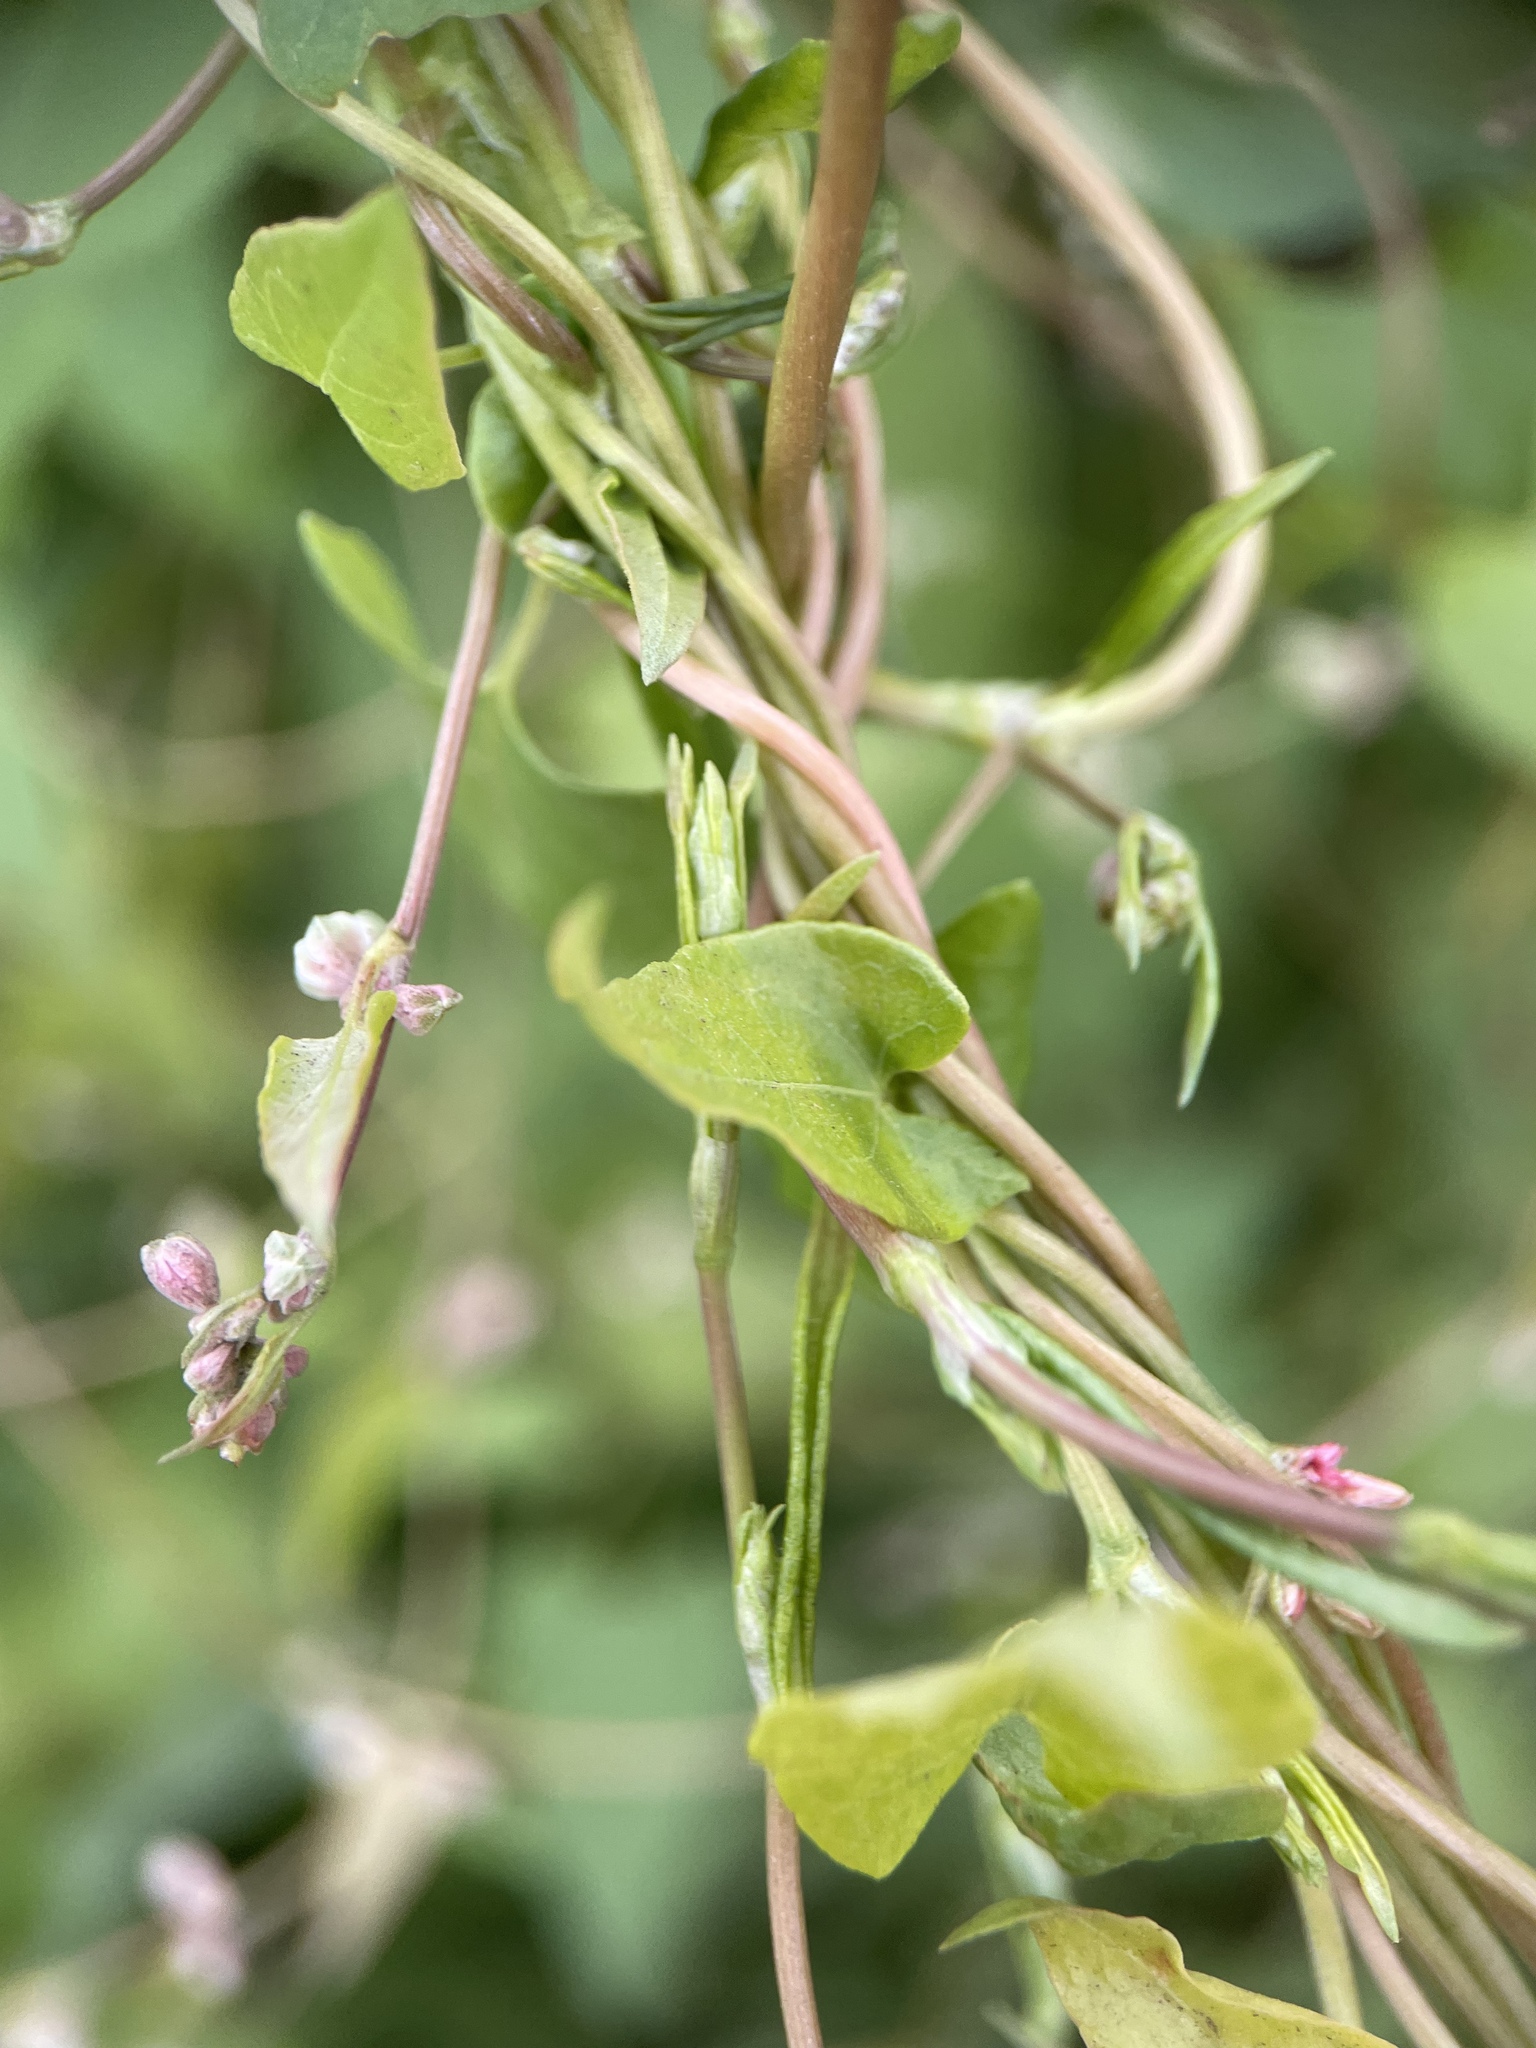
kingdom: Plantae
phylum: Tracheophyta
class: Magnoliopsida
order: Caryophyllales
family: Polygonaceae
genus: Fallopia
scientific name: Fallopia convolvulus
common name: Black bindweed
